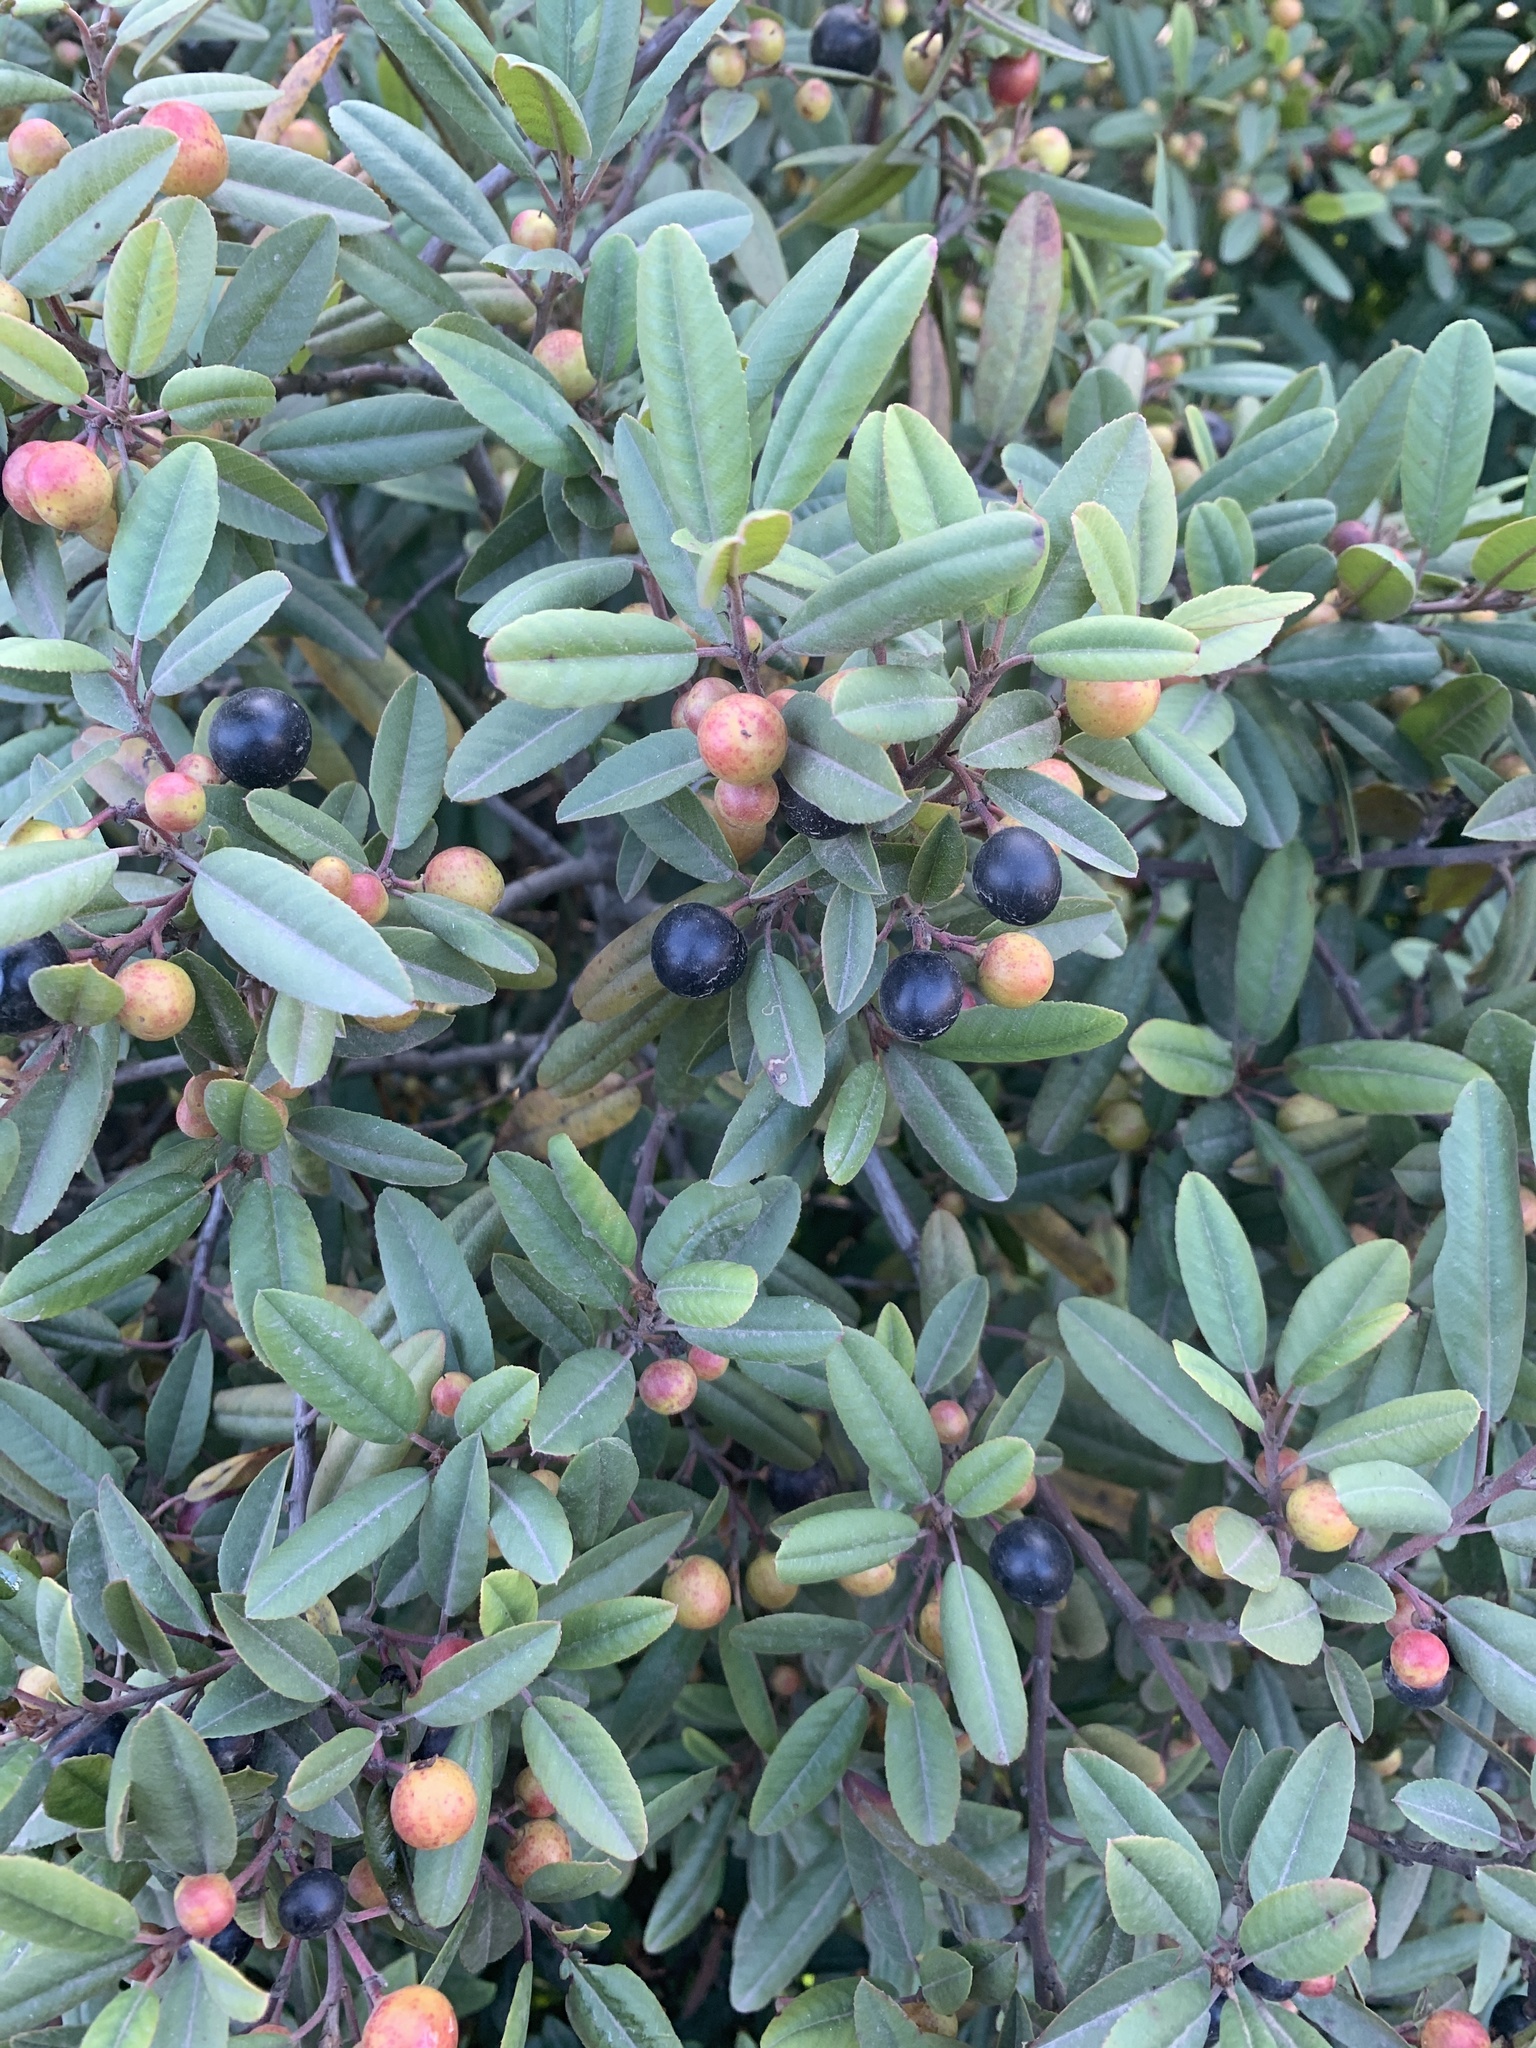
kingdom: Plantae
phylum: Tracheophyta
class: Magnoliopsida
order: Rosales
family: Rhamnaceae
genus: Frangula
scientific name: Frangula californica
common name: California buckthorn
